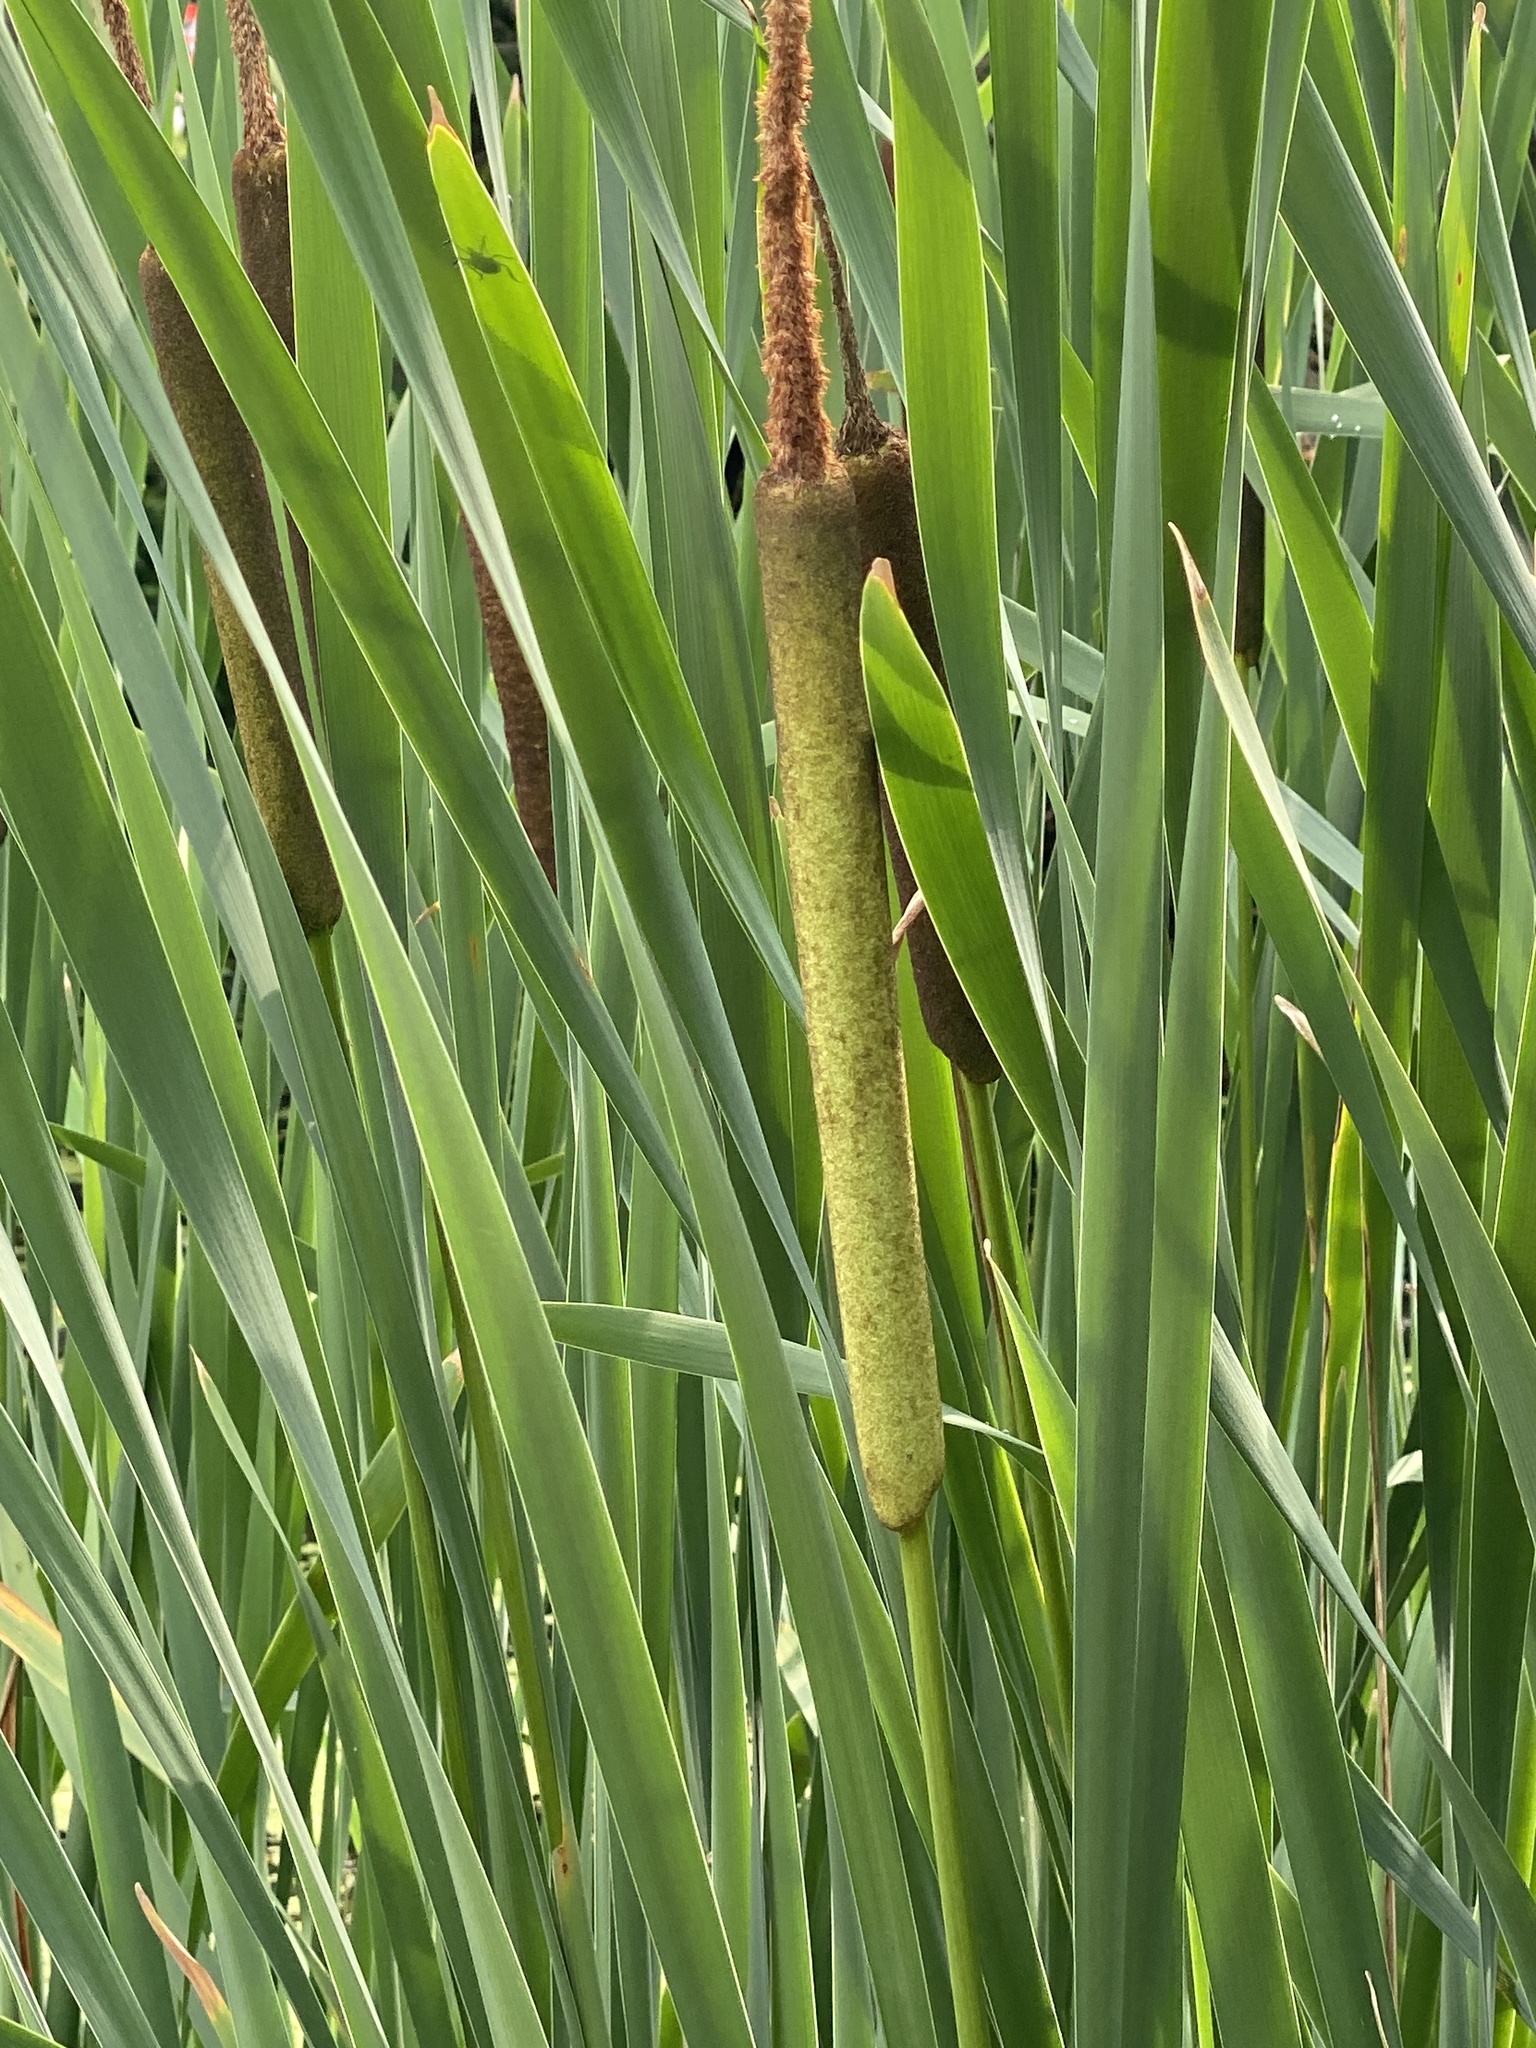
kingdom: Plantae
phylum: Tracheophyta
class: Liliopsida
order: Poales
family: Typhaceae
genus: Typha
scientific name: Typha latifolia
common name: Broadleaf cattail
